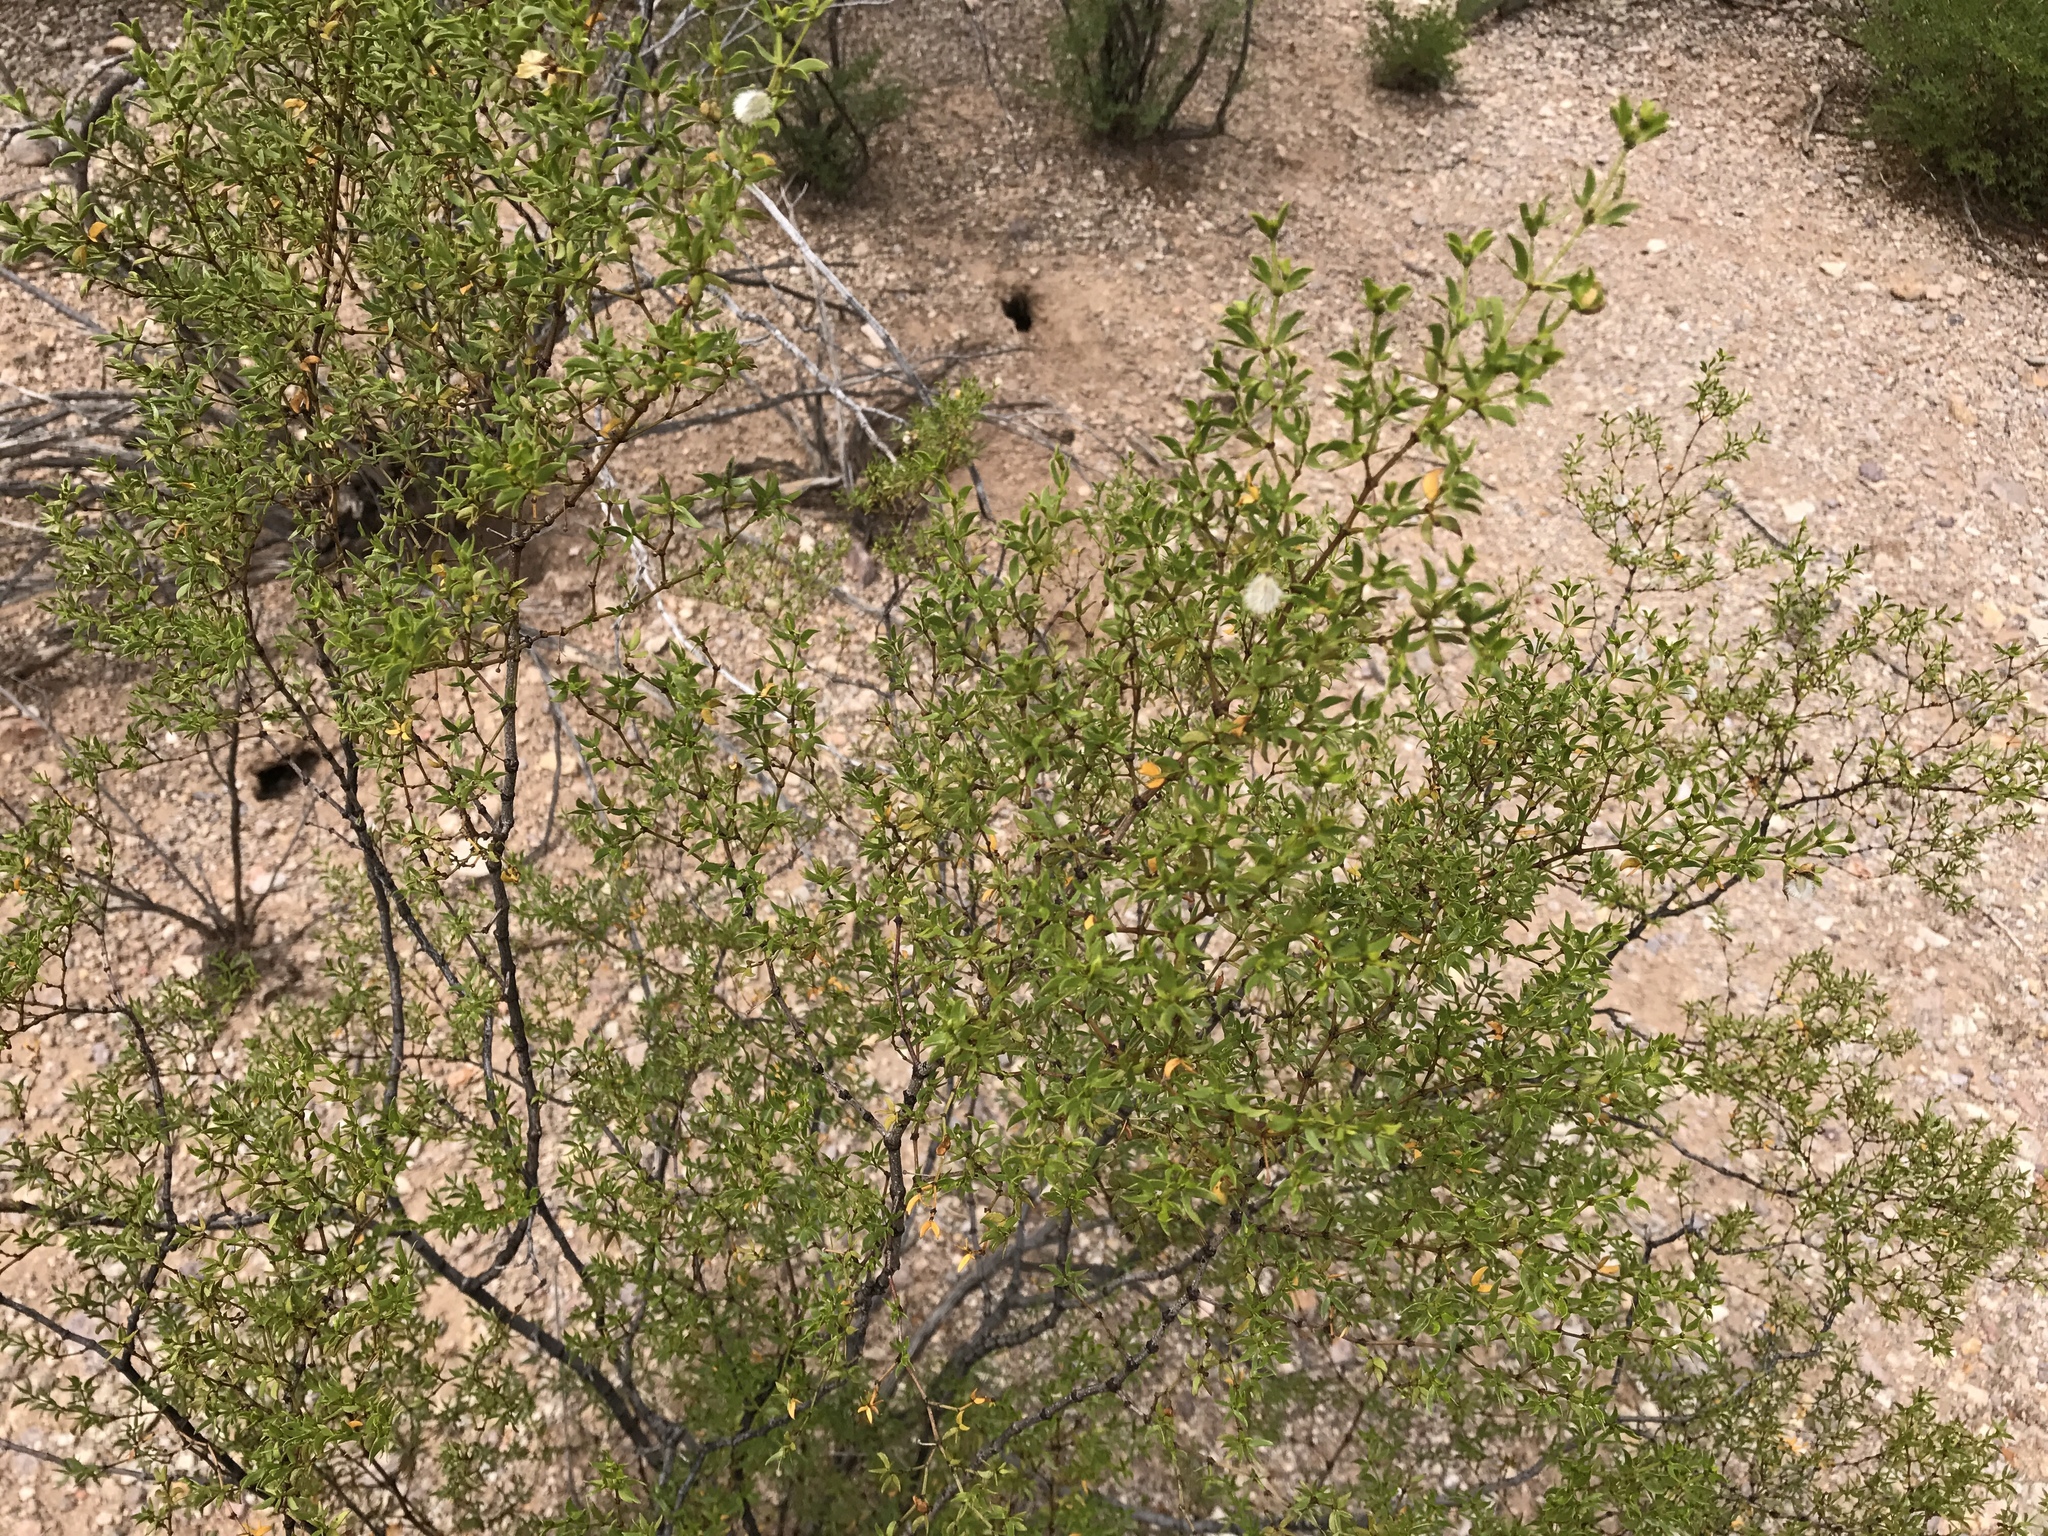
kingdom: Plantae
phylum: Tracheophyta
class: Magnoliopsida
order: Zygophyllales
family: Zygophyllaceae
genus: Larrea
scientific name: Larrea tridentata
